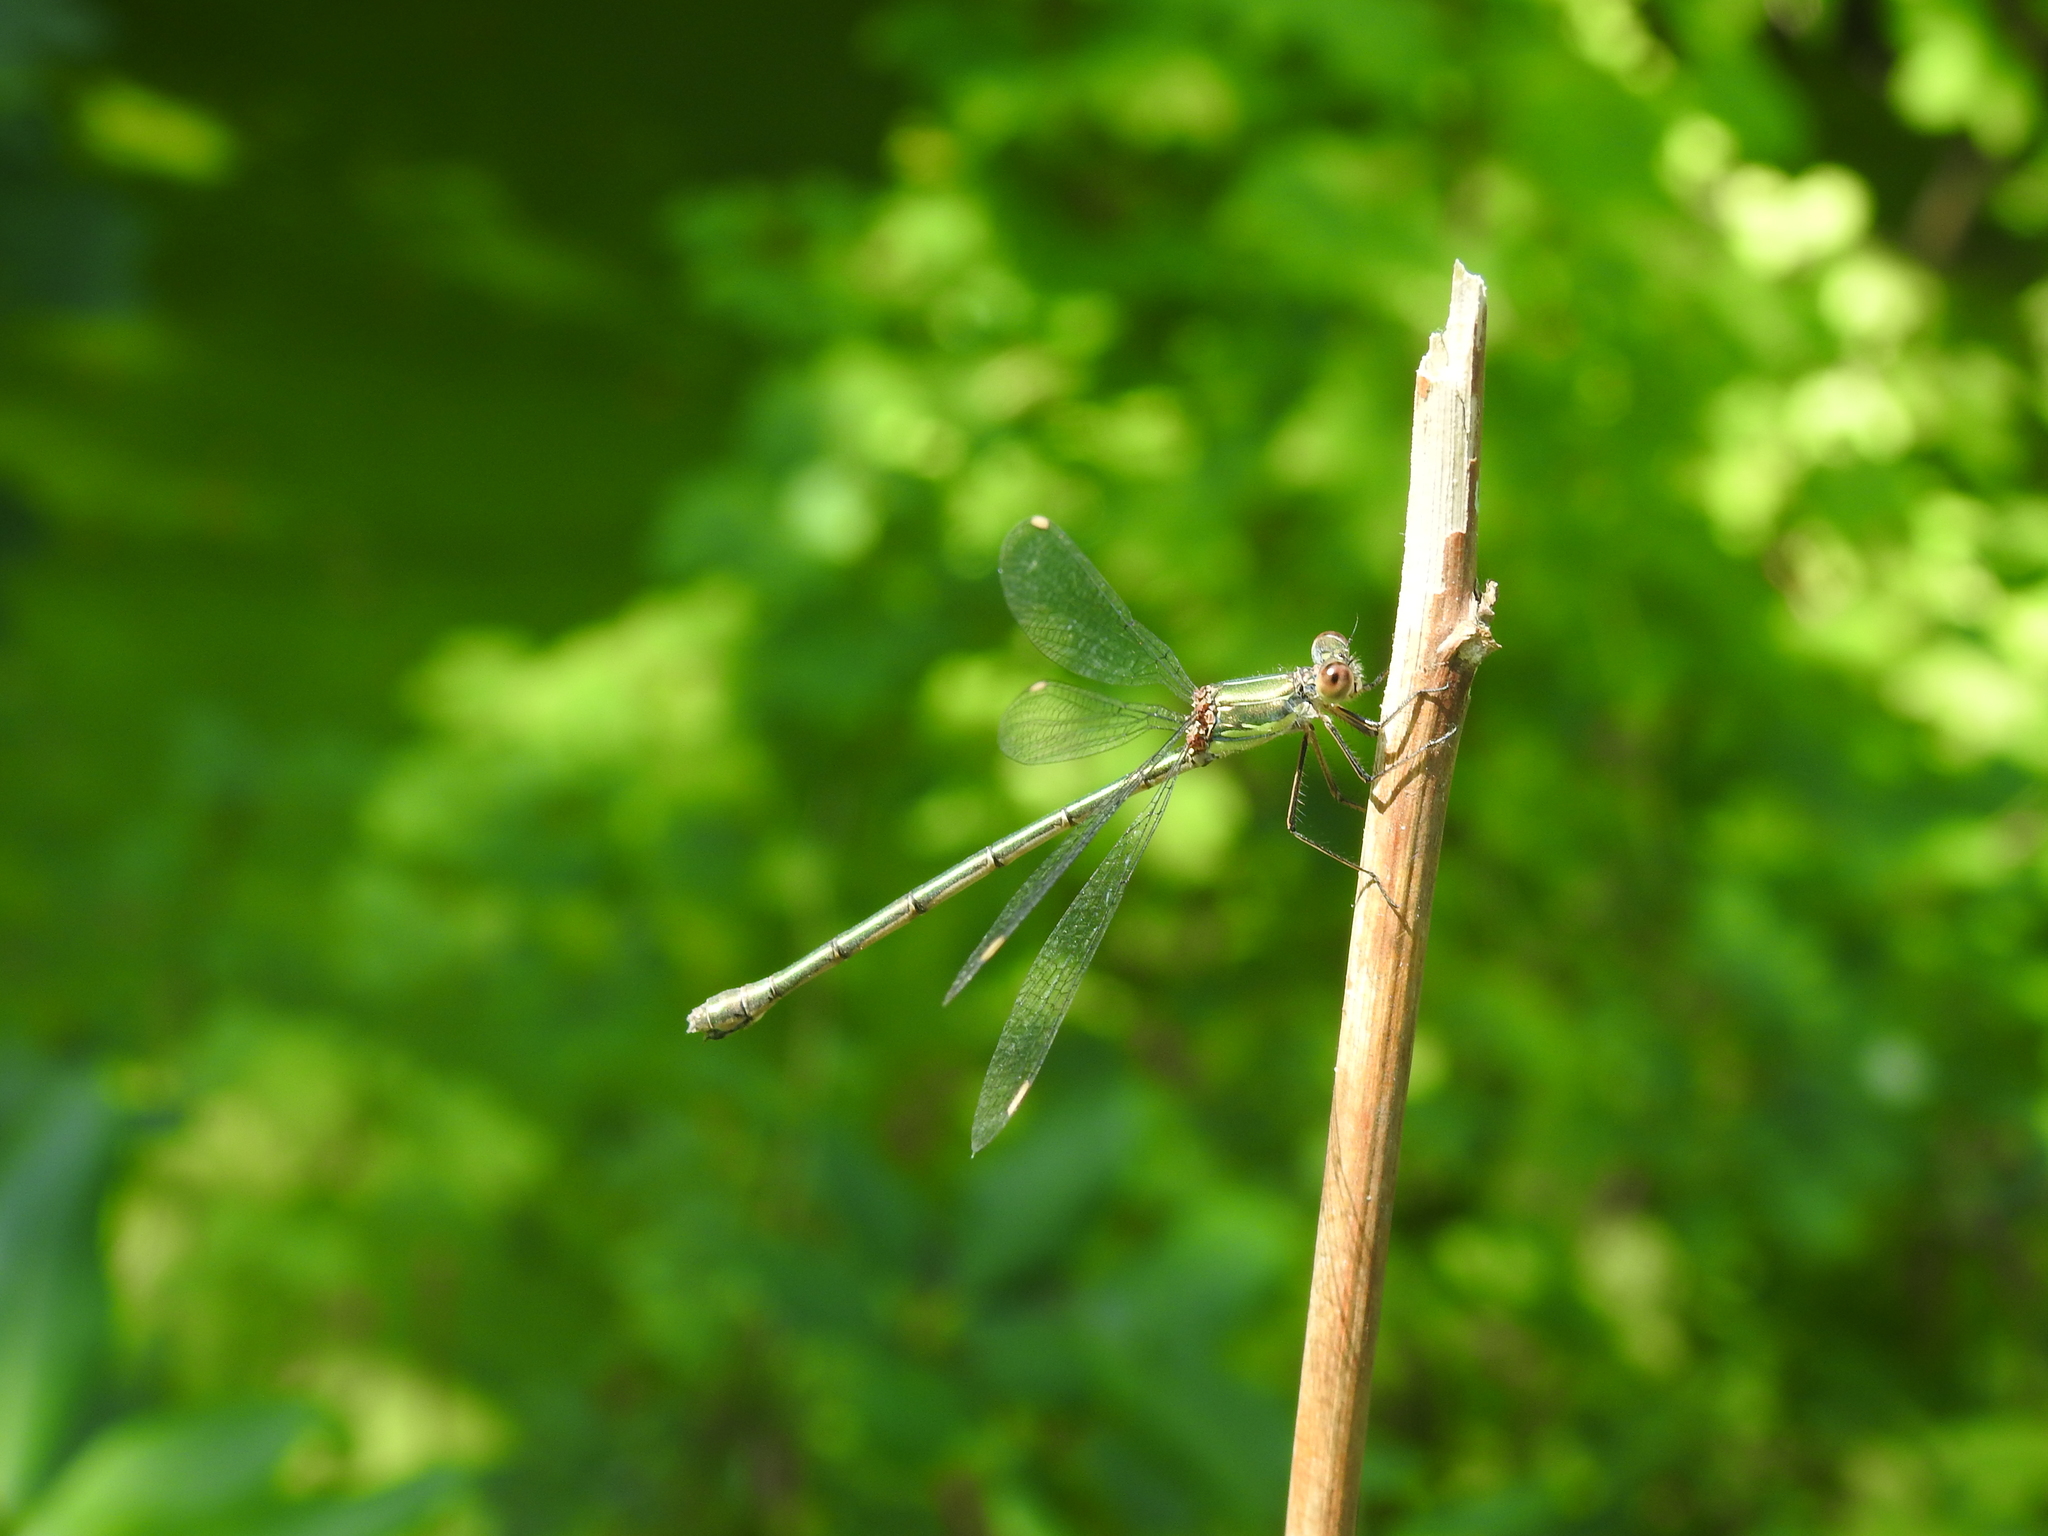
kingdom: Animalia
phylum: Arthropoda
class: Insecta
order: Odonata
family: Lestidae
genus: Chalcolestes
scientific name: Chalcolestes viridis
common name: Green emerald damselfly
